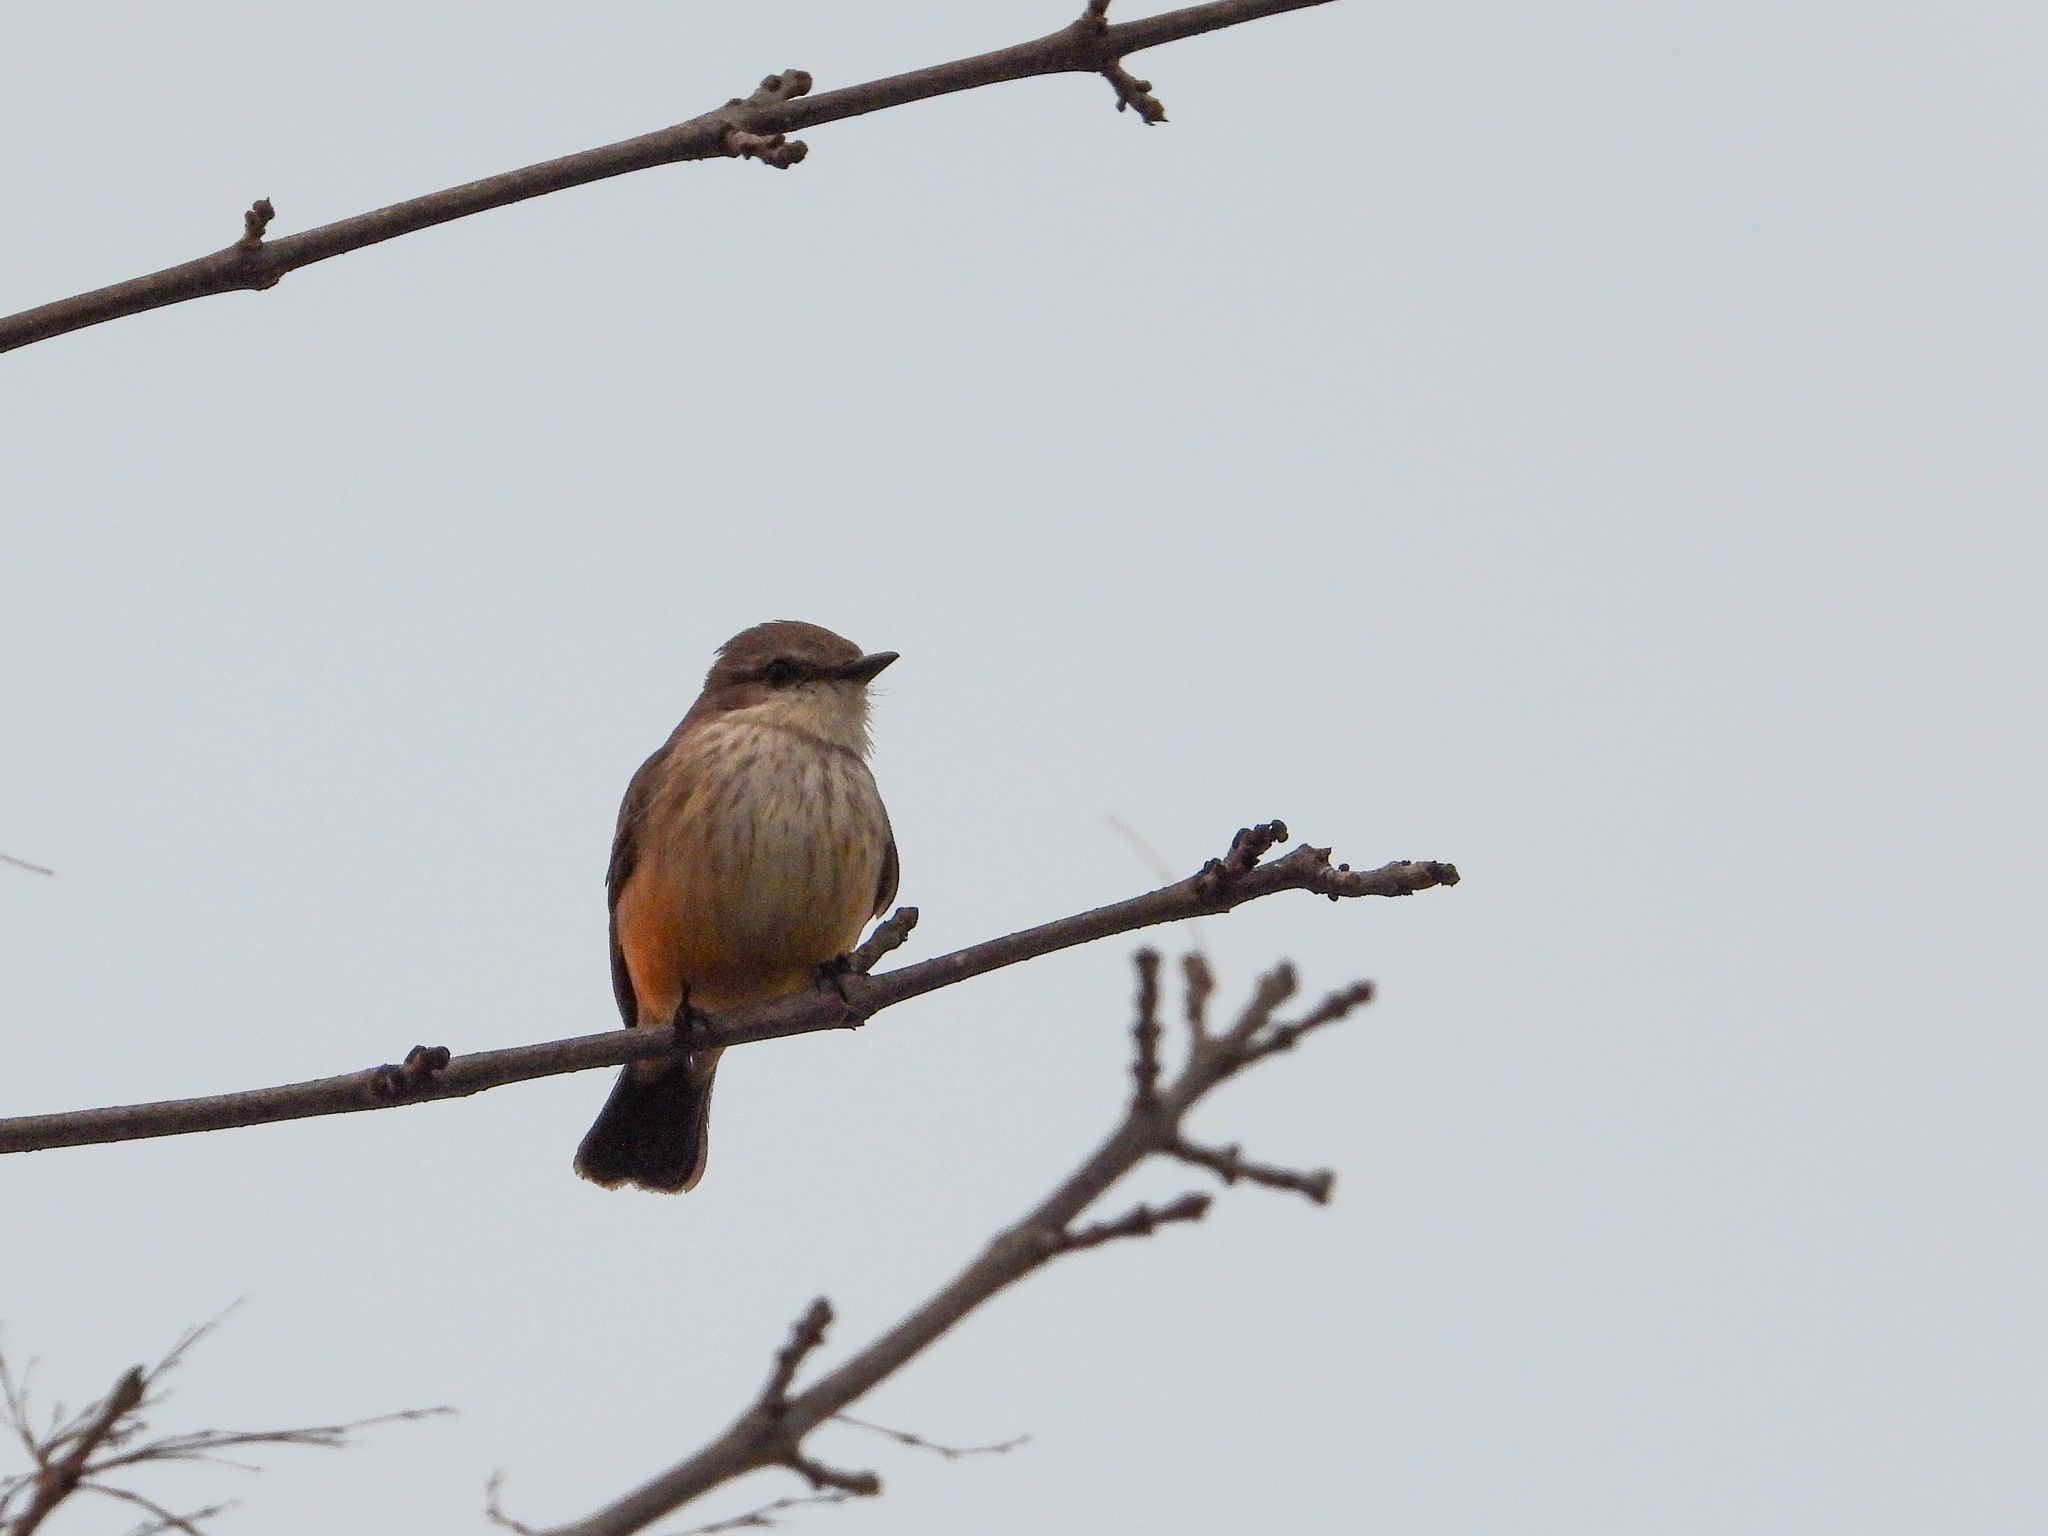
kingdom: Animalia
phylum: Chordata
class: Aves
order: Passeriformes
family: Tyrannidae
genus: Pyrocephalus
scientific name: Pyrocephalus rubinus
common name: Vermilion flycatcher
